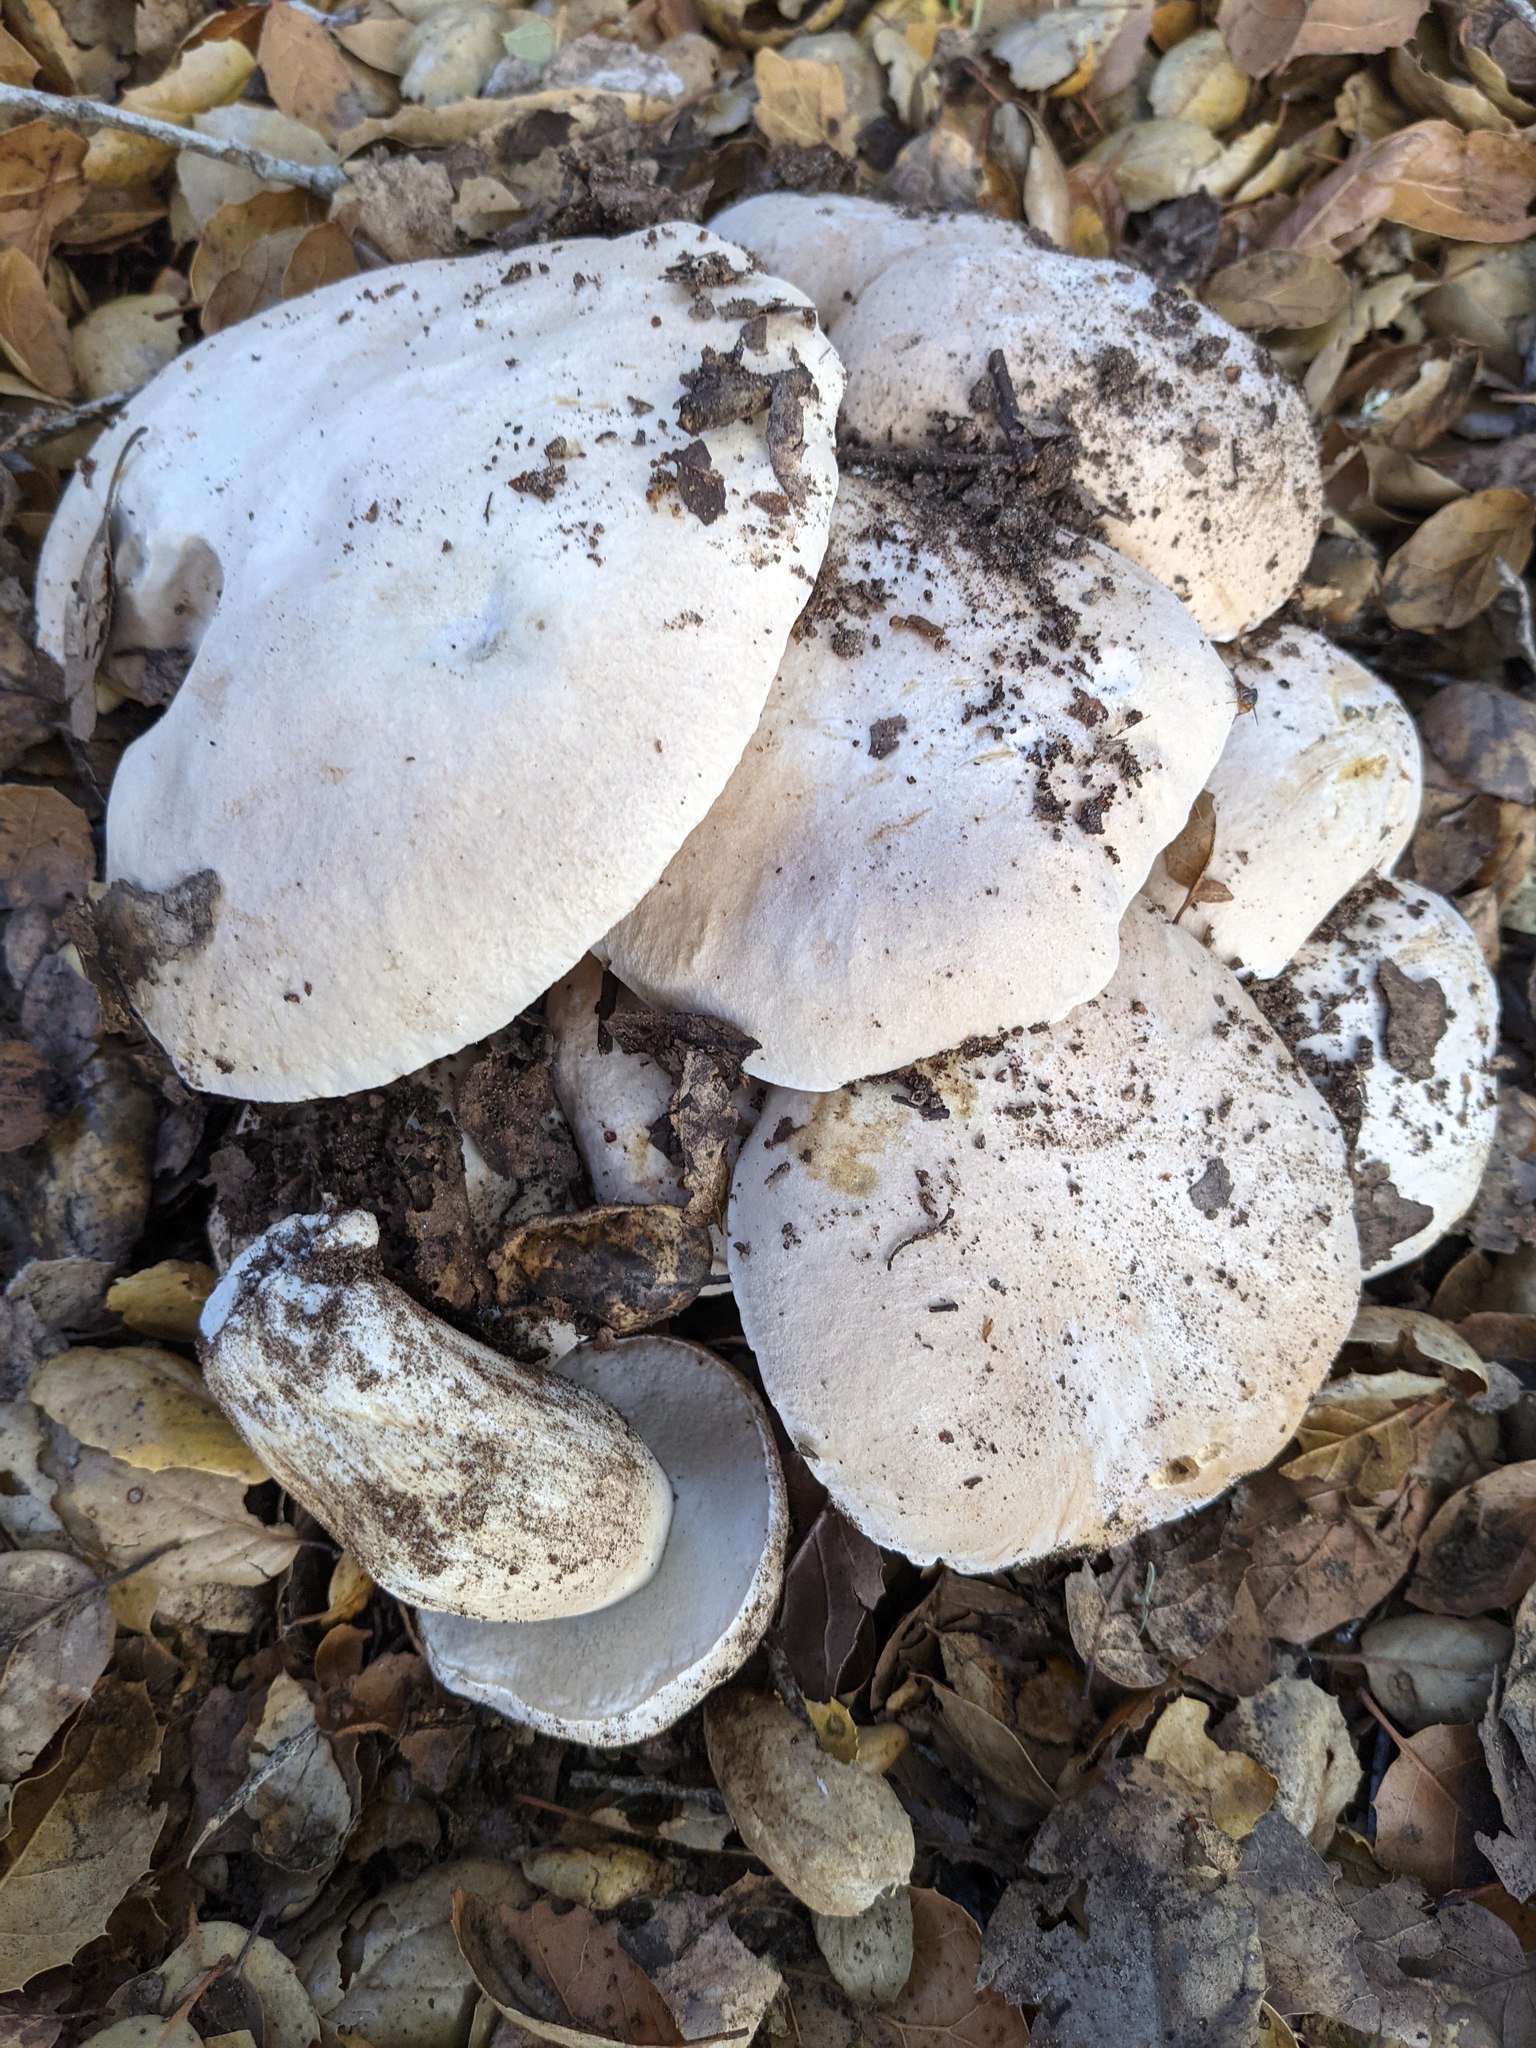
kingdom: Fungi
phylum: Basidiomycota
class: Agaricomycetes
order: Boletales
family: Boletaceae
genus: Boletus
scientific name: Boletus barrowsii
